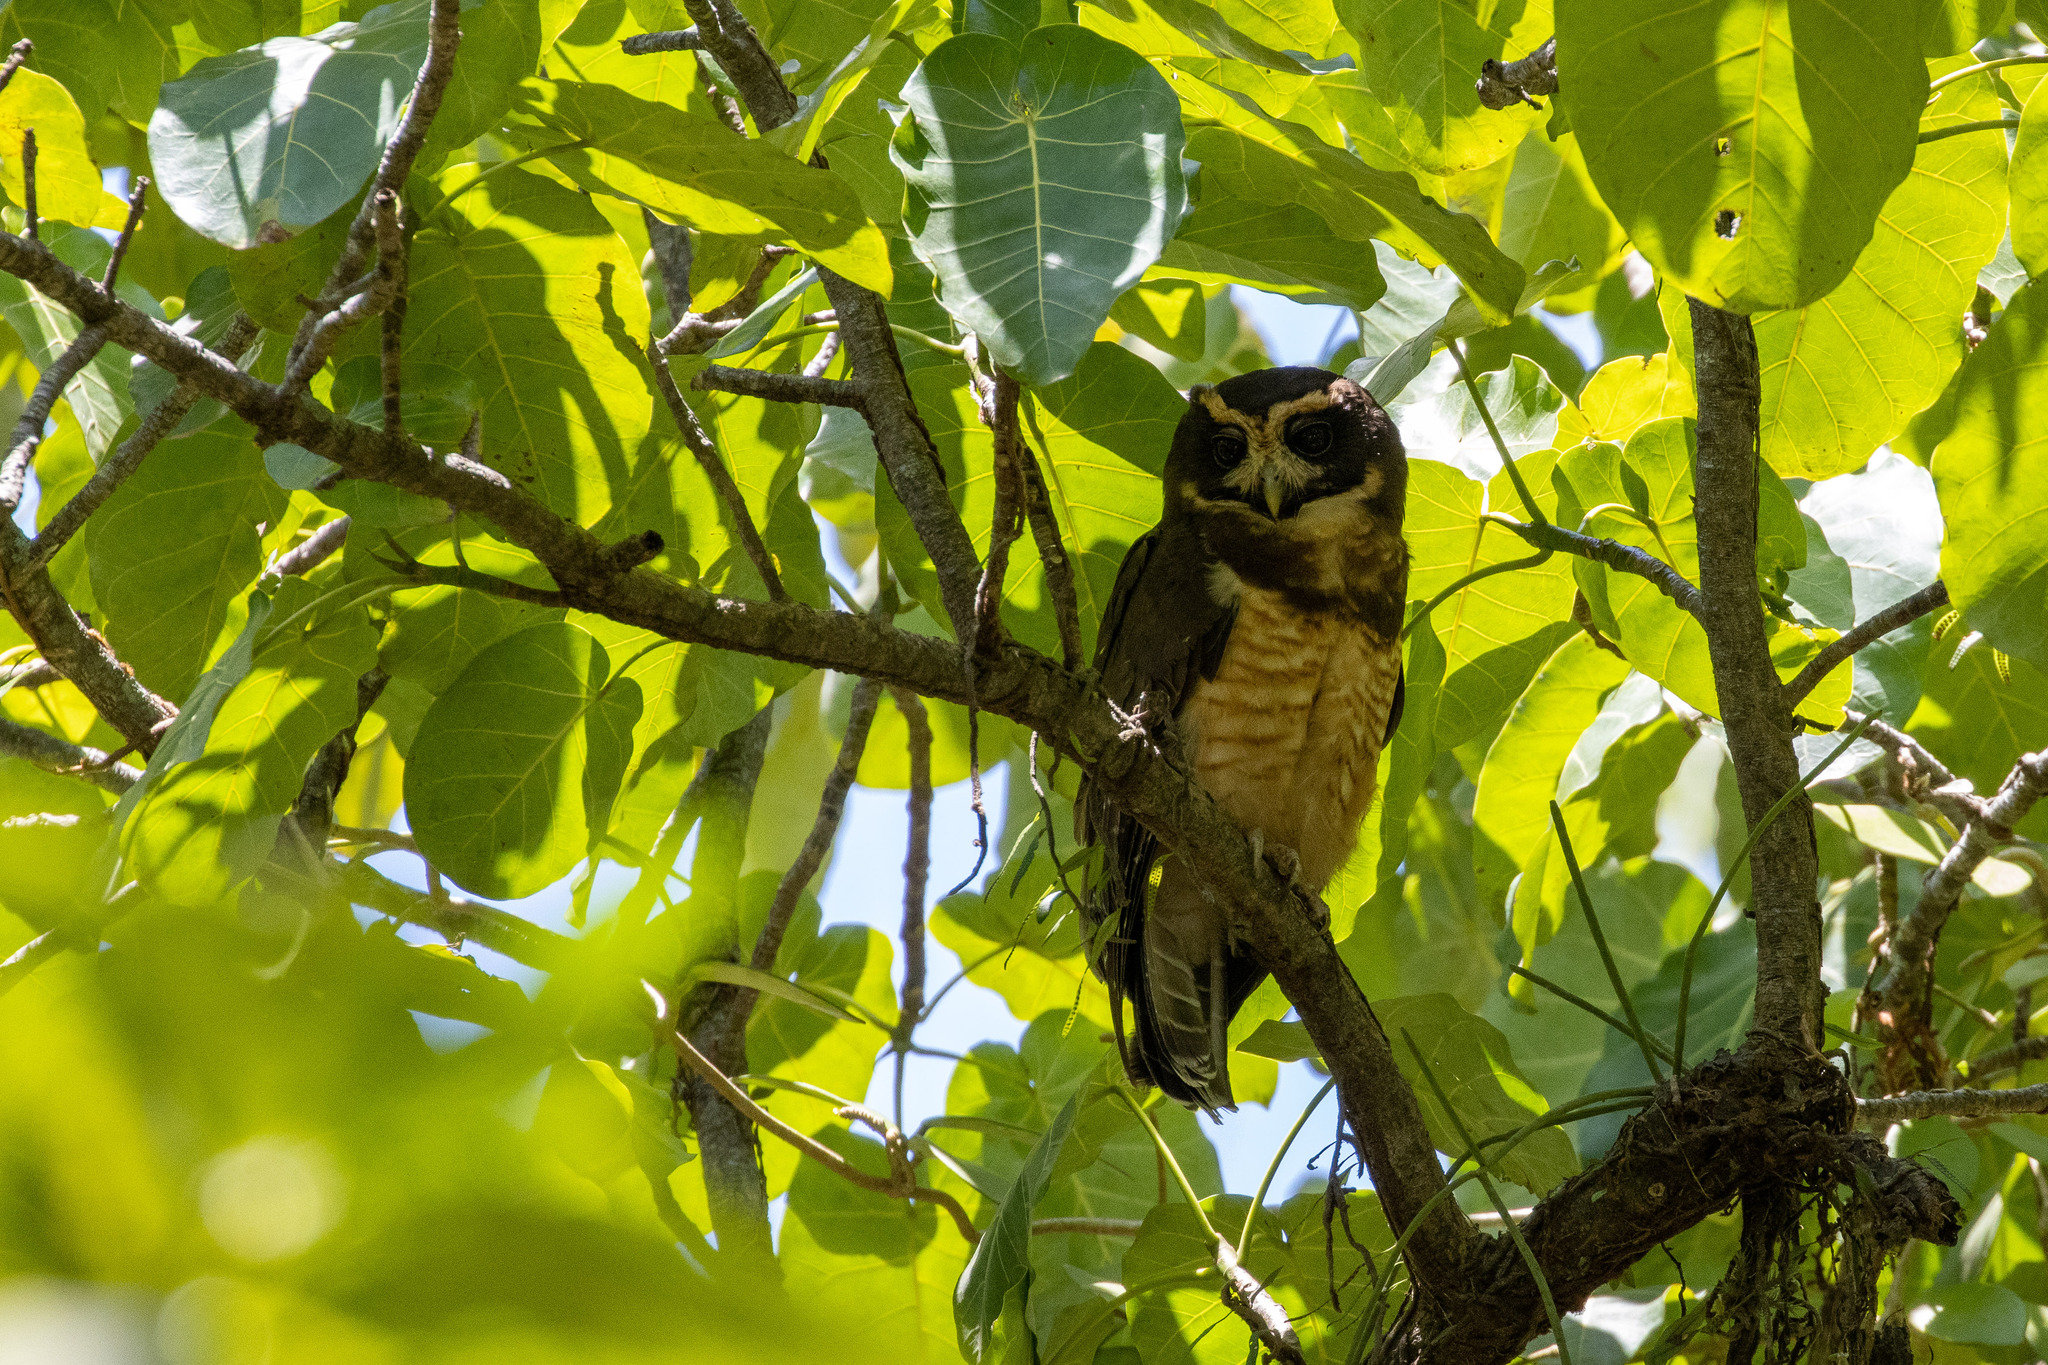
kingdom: Animalia
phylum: Chordata
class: Aves
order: Strigiformes
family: Strigidae
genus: Pulsatrix
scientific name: Pulsatrix koeniswaldiana
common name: Tawny-browed owl
